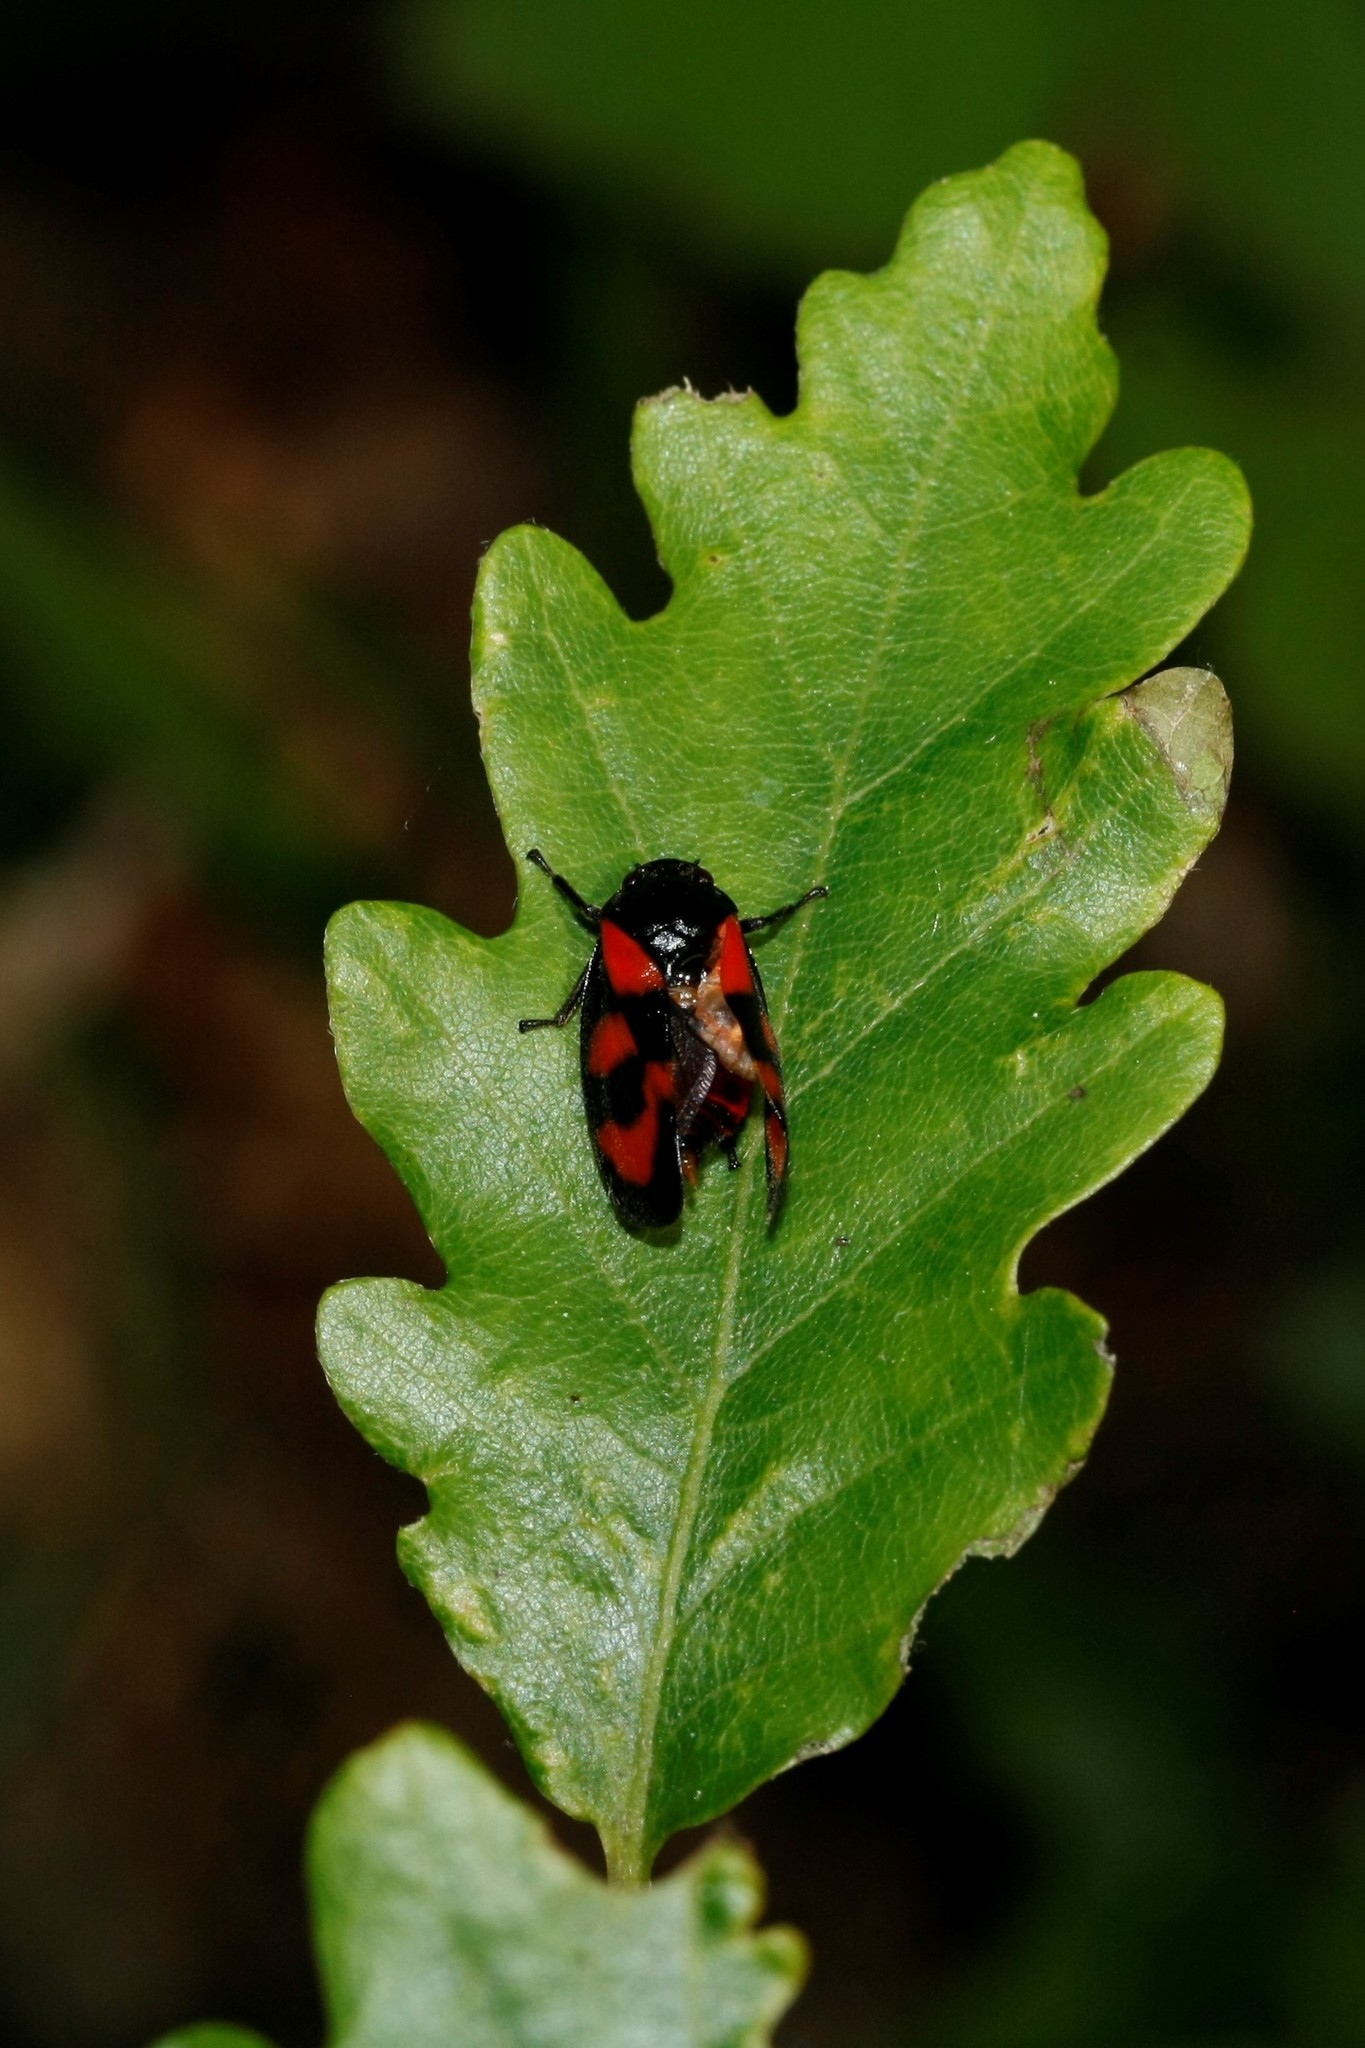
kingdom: Animalia
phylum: Arthropoda
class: Insecta
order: Hemiptera
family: Cercopidae
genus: Cercopis
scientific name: Cercopis vulnerata
